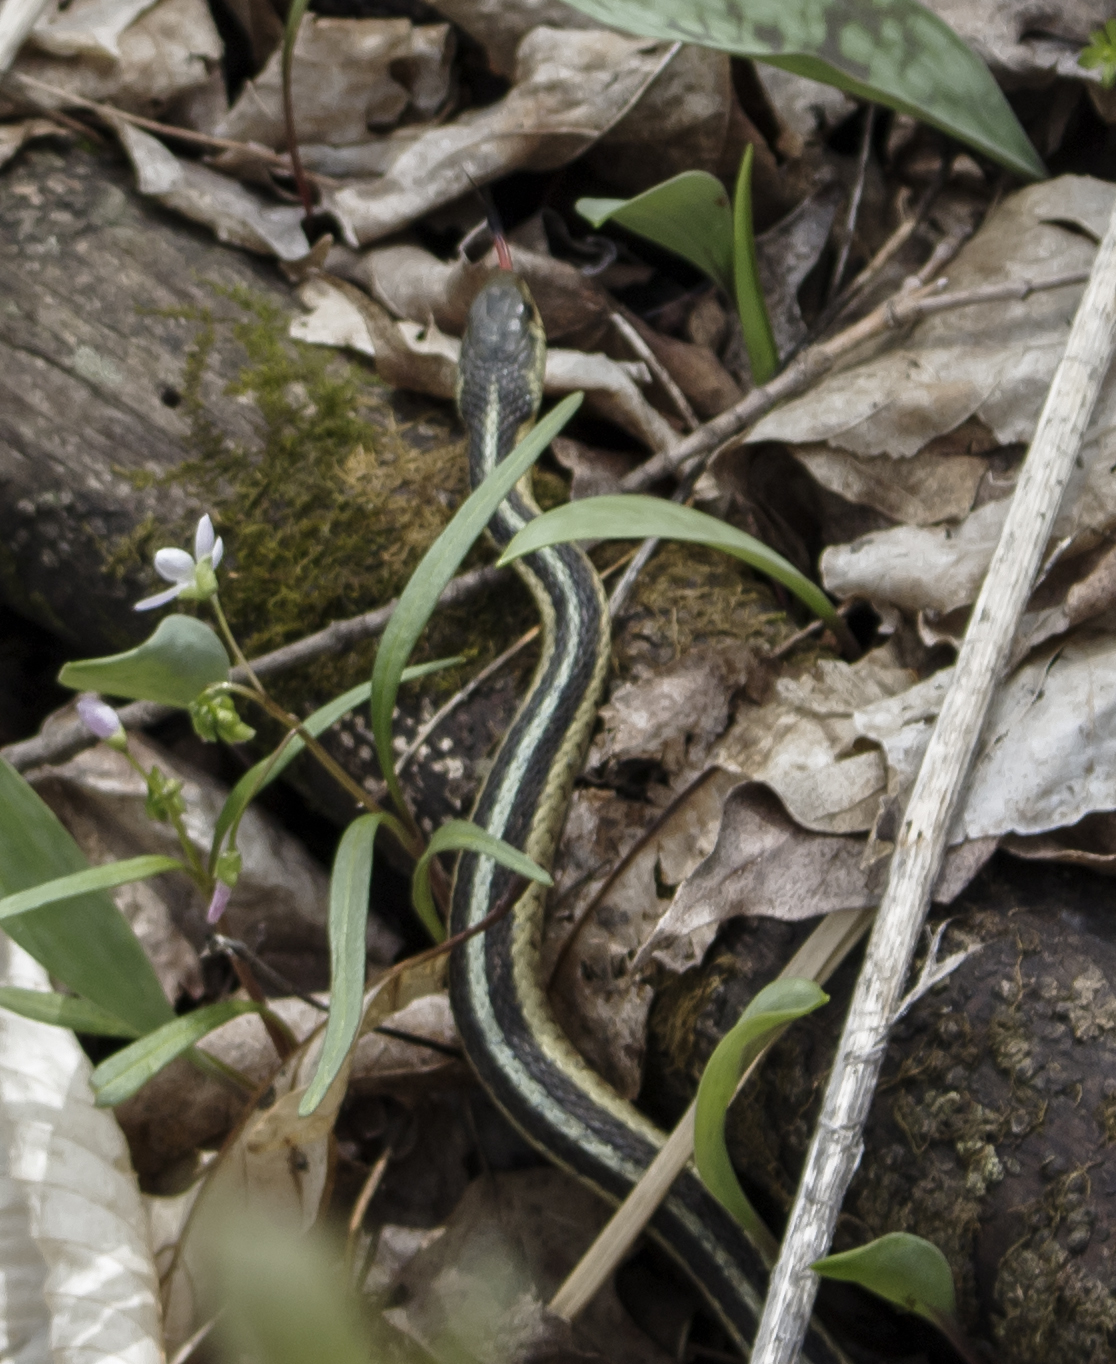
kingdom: Animalia
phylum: Chordata
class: Squamata
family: Colubridae
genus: Thamnophis
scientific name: Thamnophis sirtalis
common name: Common garter snake
